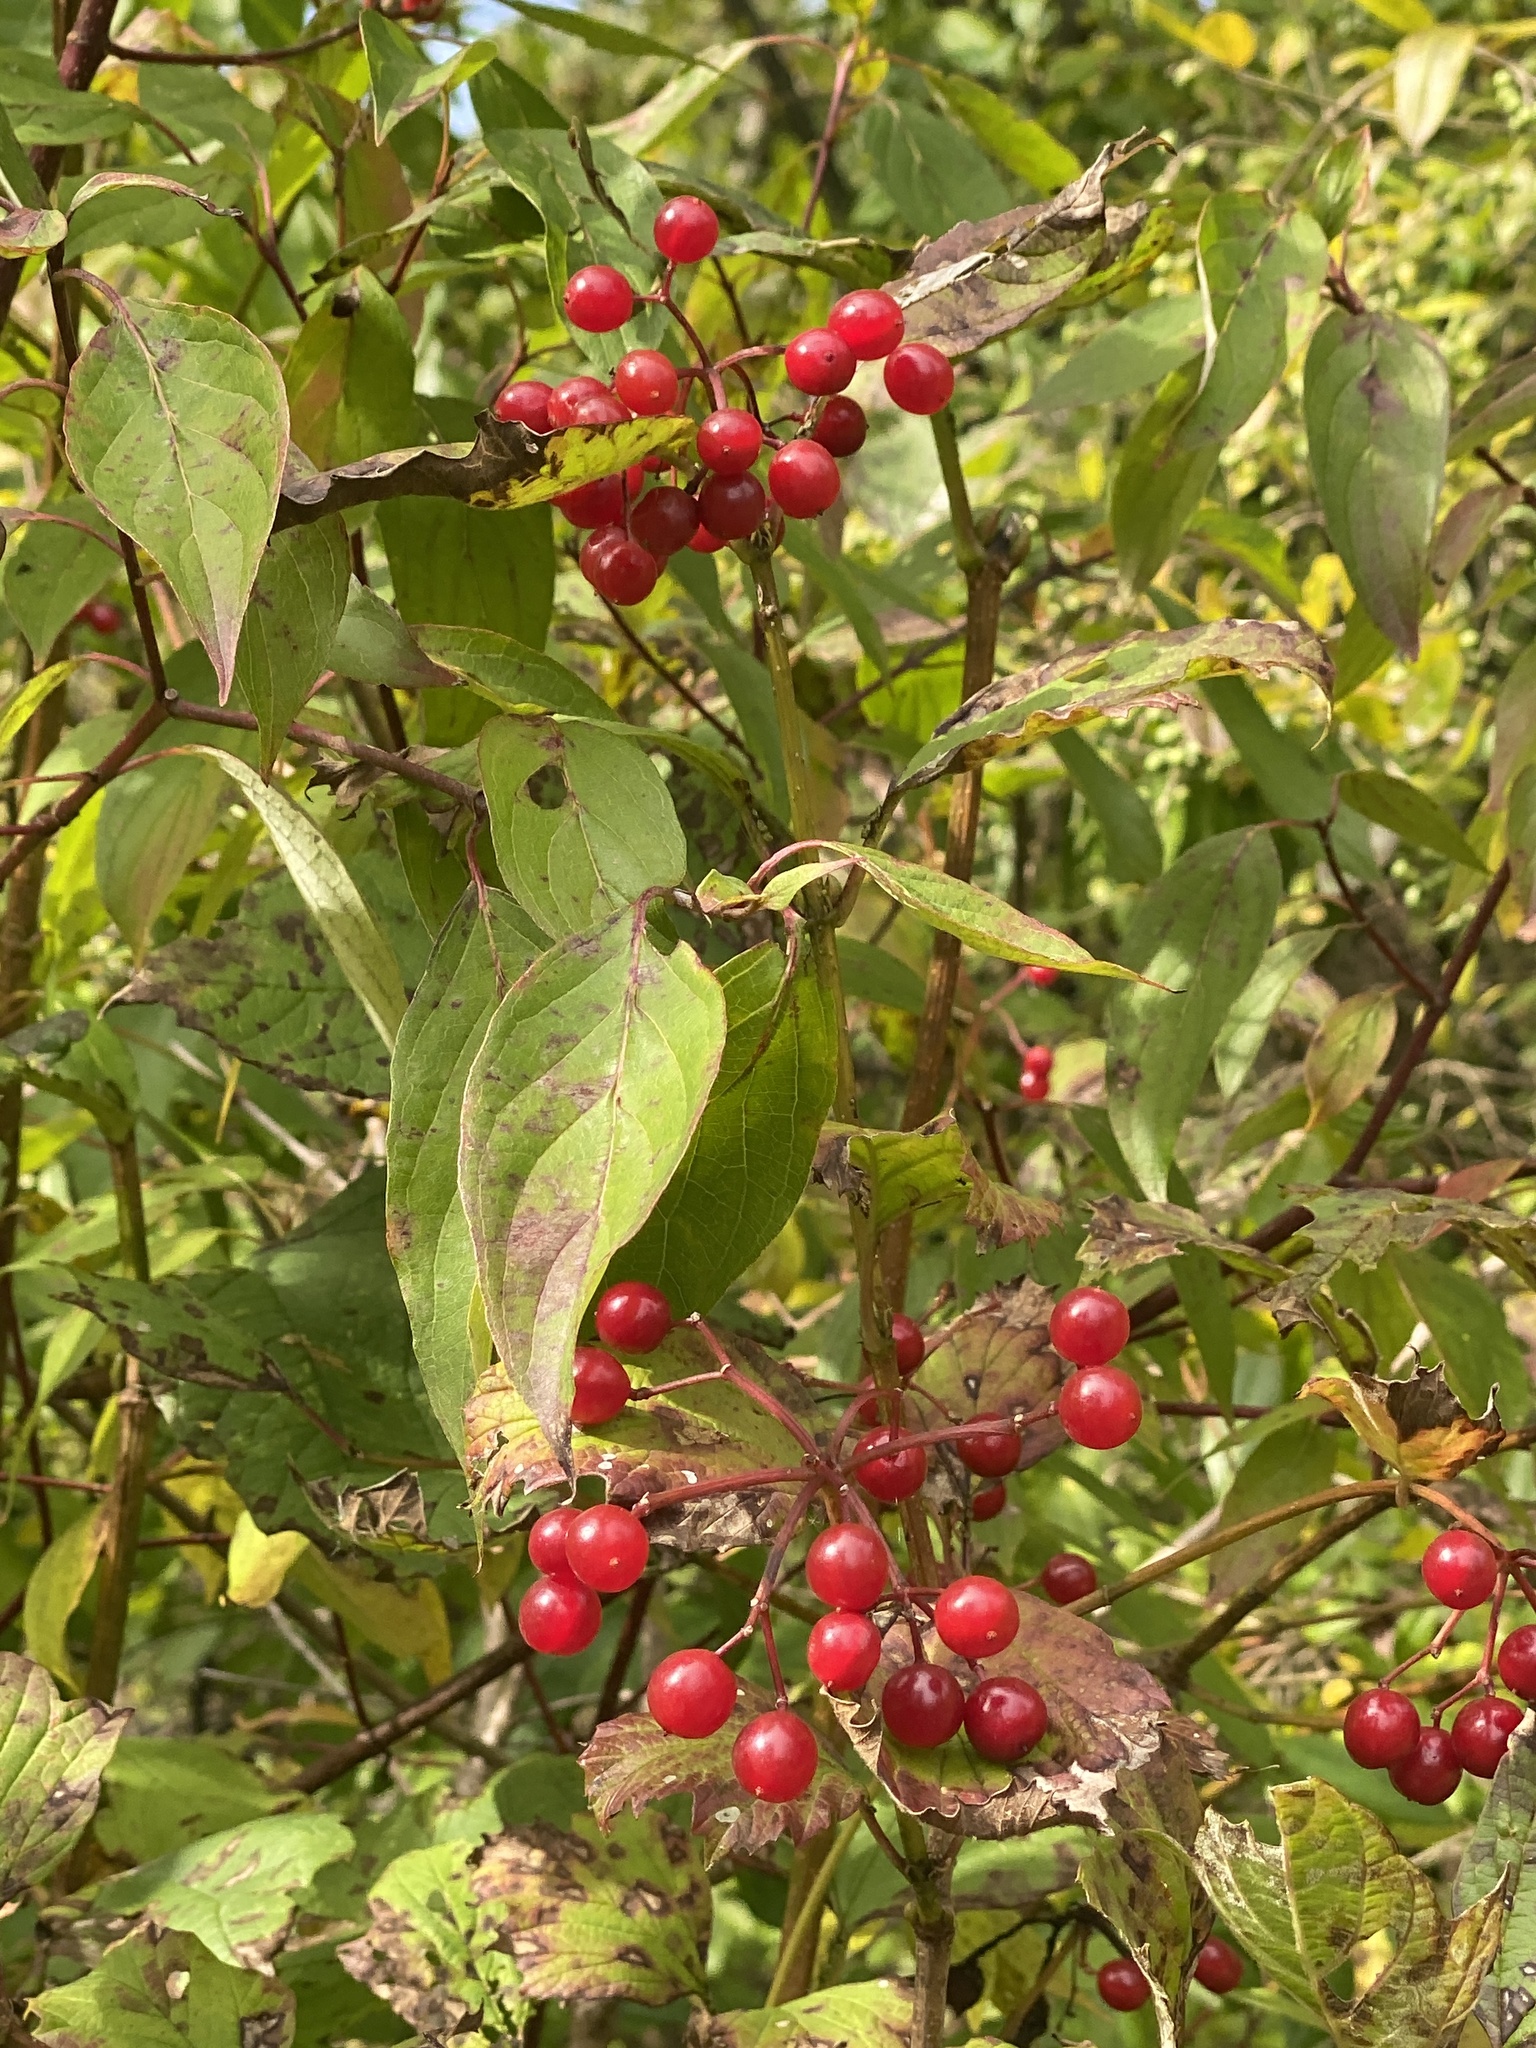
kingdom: Plantae
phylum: Tracheophyta
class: Magnoliopsida
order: Dipsacales
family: Viburnaceae
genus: Viburnum
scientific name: Viburnum opulus
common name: Guelder-rose
